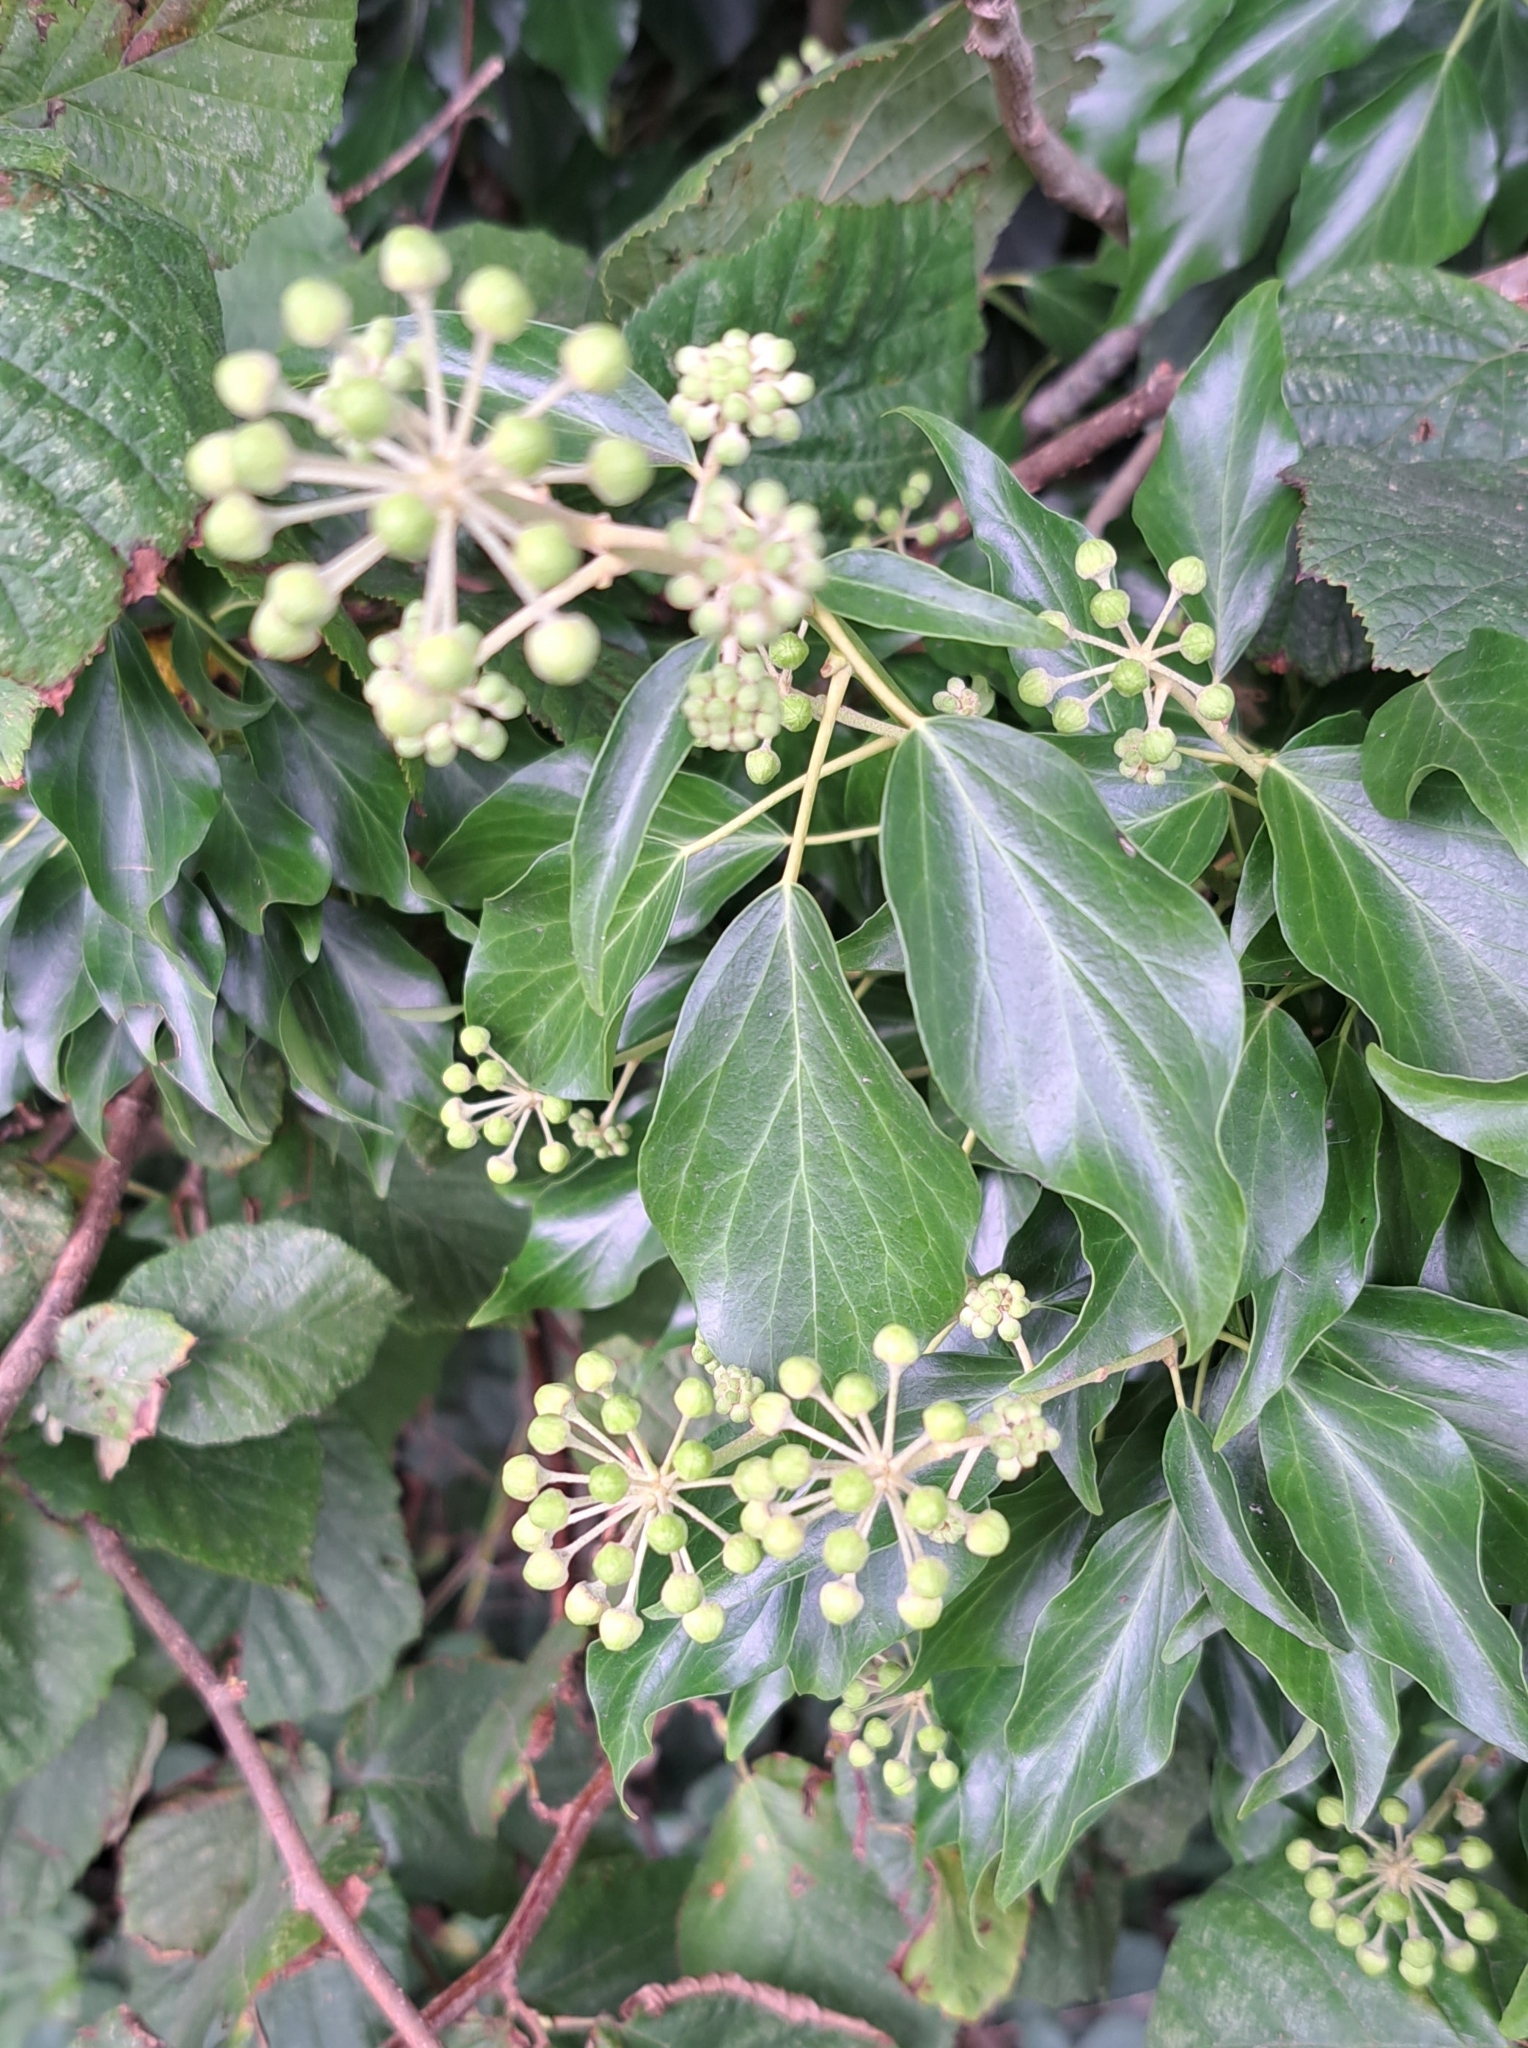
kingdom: Plantae
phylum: Tracheophyta
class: Magnoliopsida
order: Apiales
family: Araliaceae
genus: Hedera
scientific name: Hedera helix
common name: Ivy
